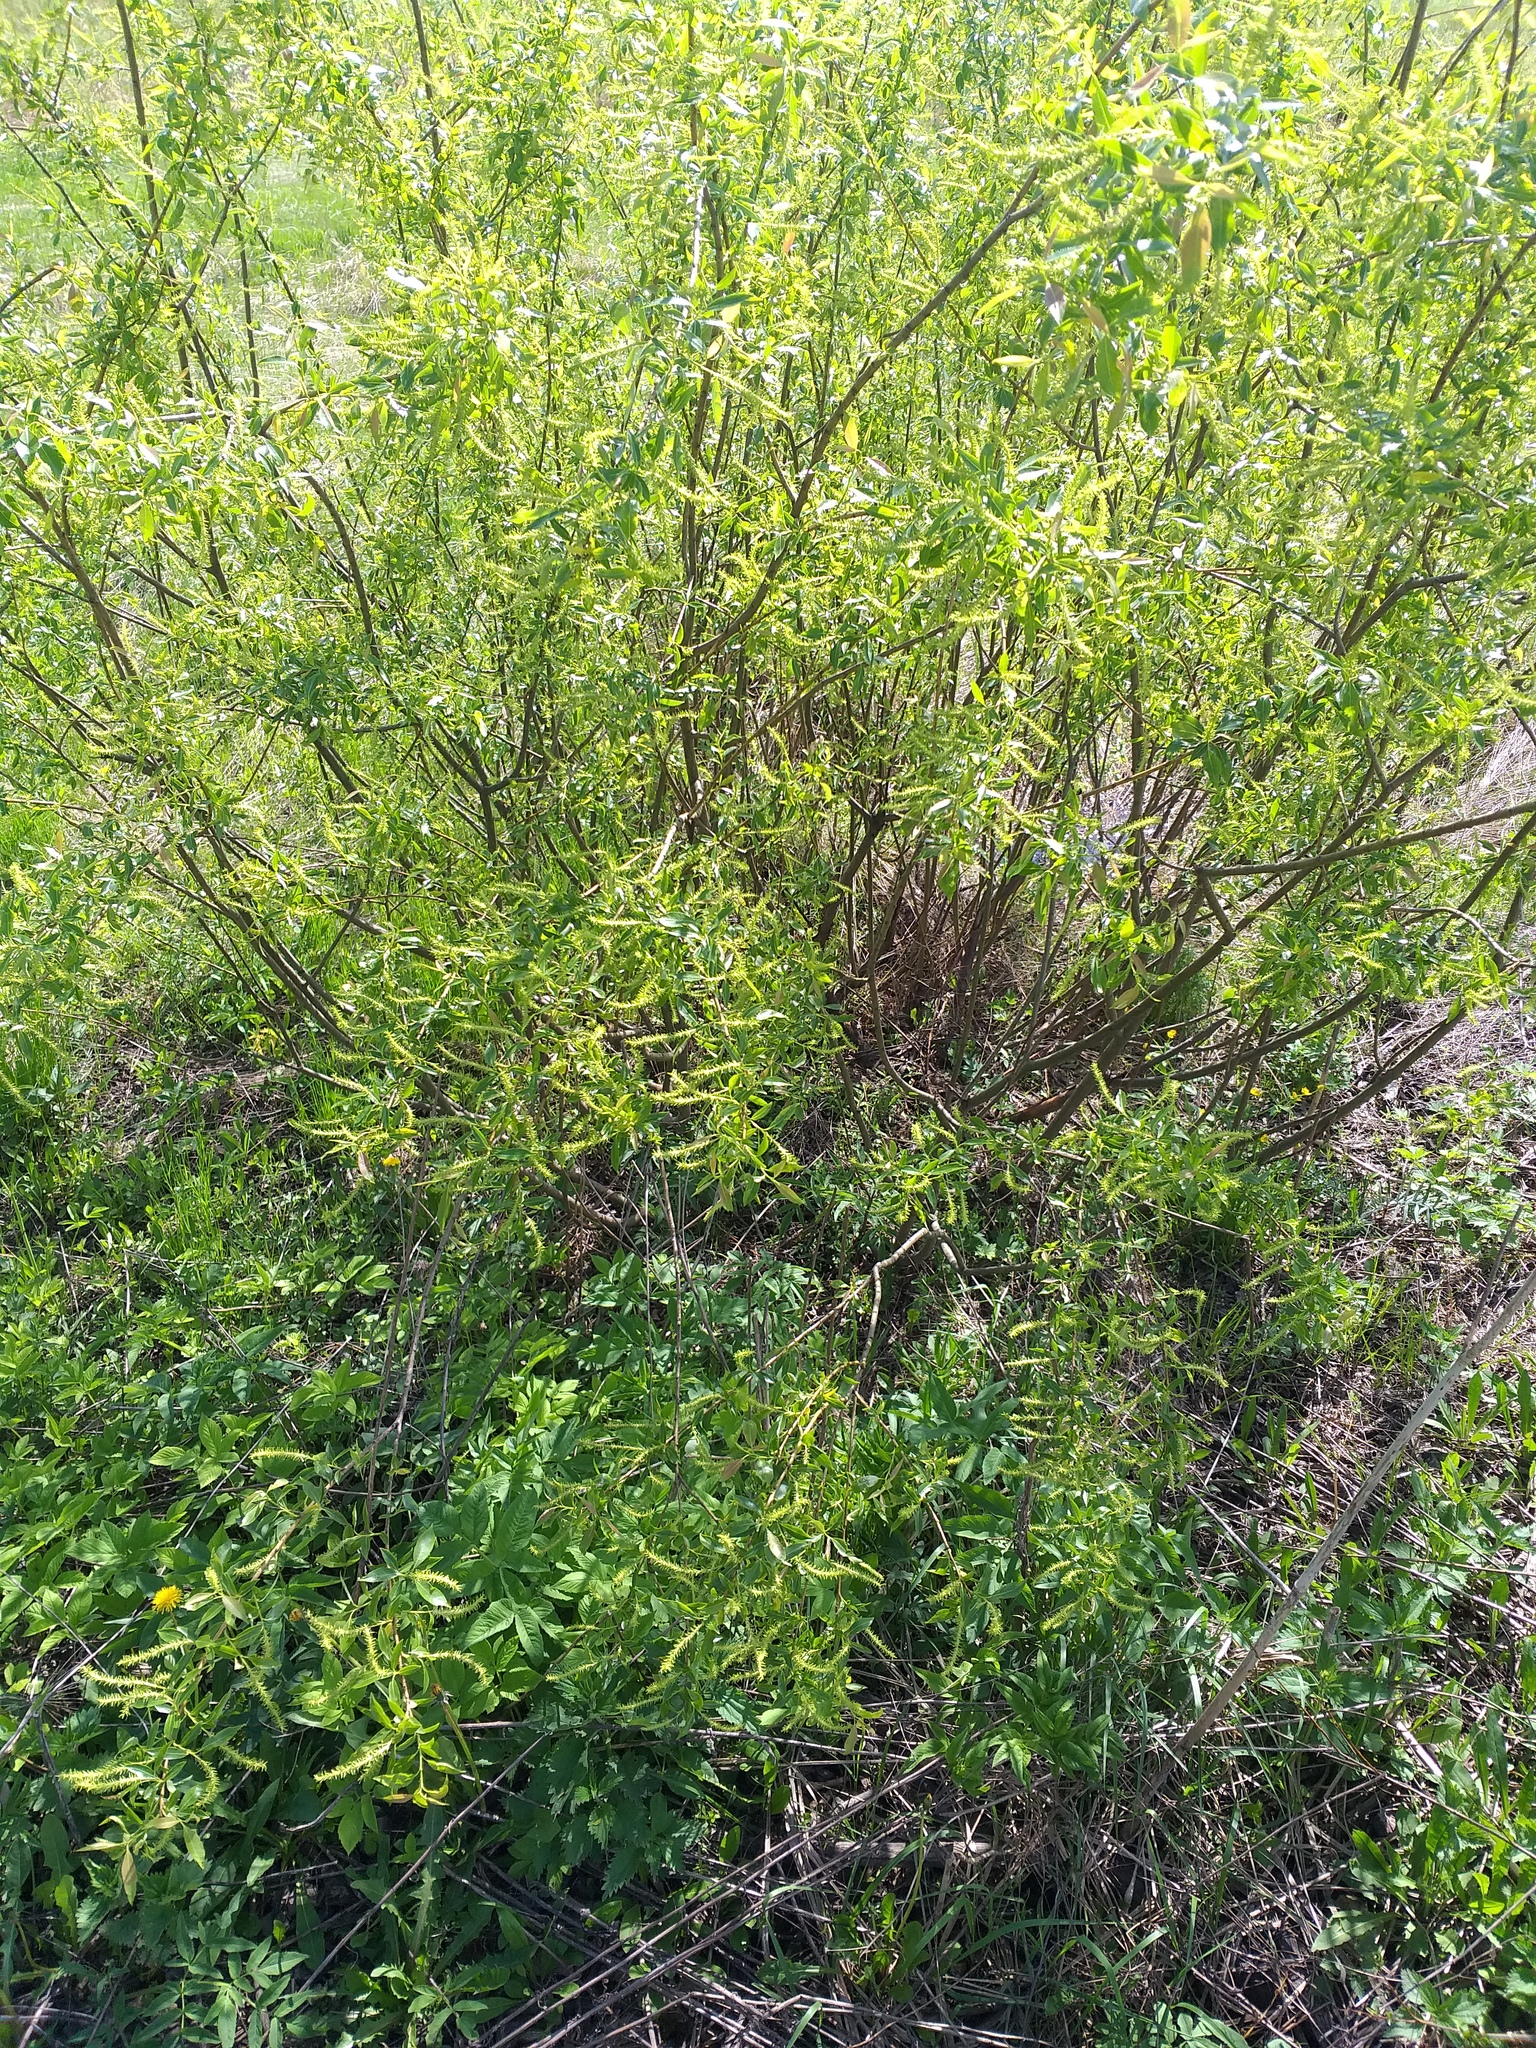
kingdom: Plantae
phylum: Tracheophyta
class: Magnoliopsida
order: Malpighiales
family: Salicaceae
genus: Salix
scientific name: Salix triandra
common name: Almond willow
